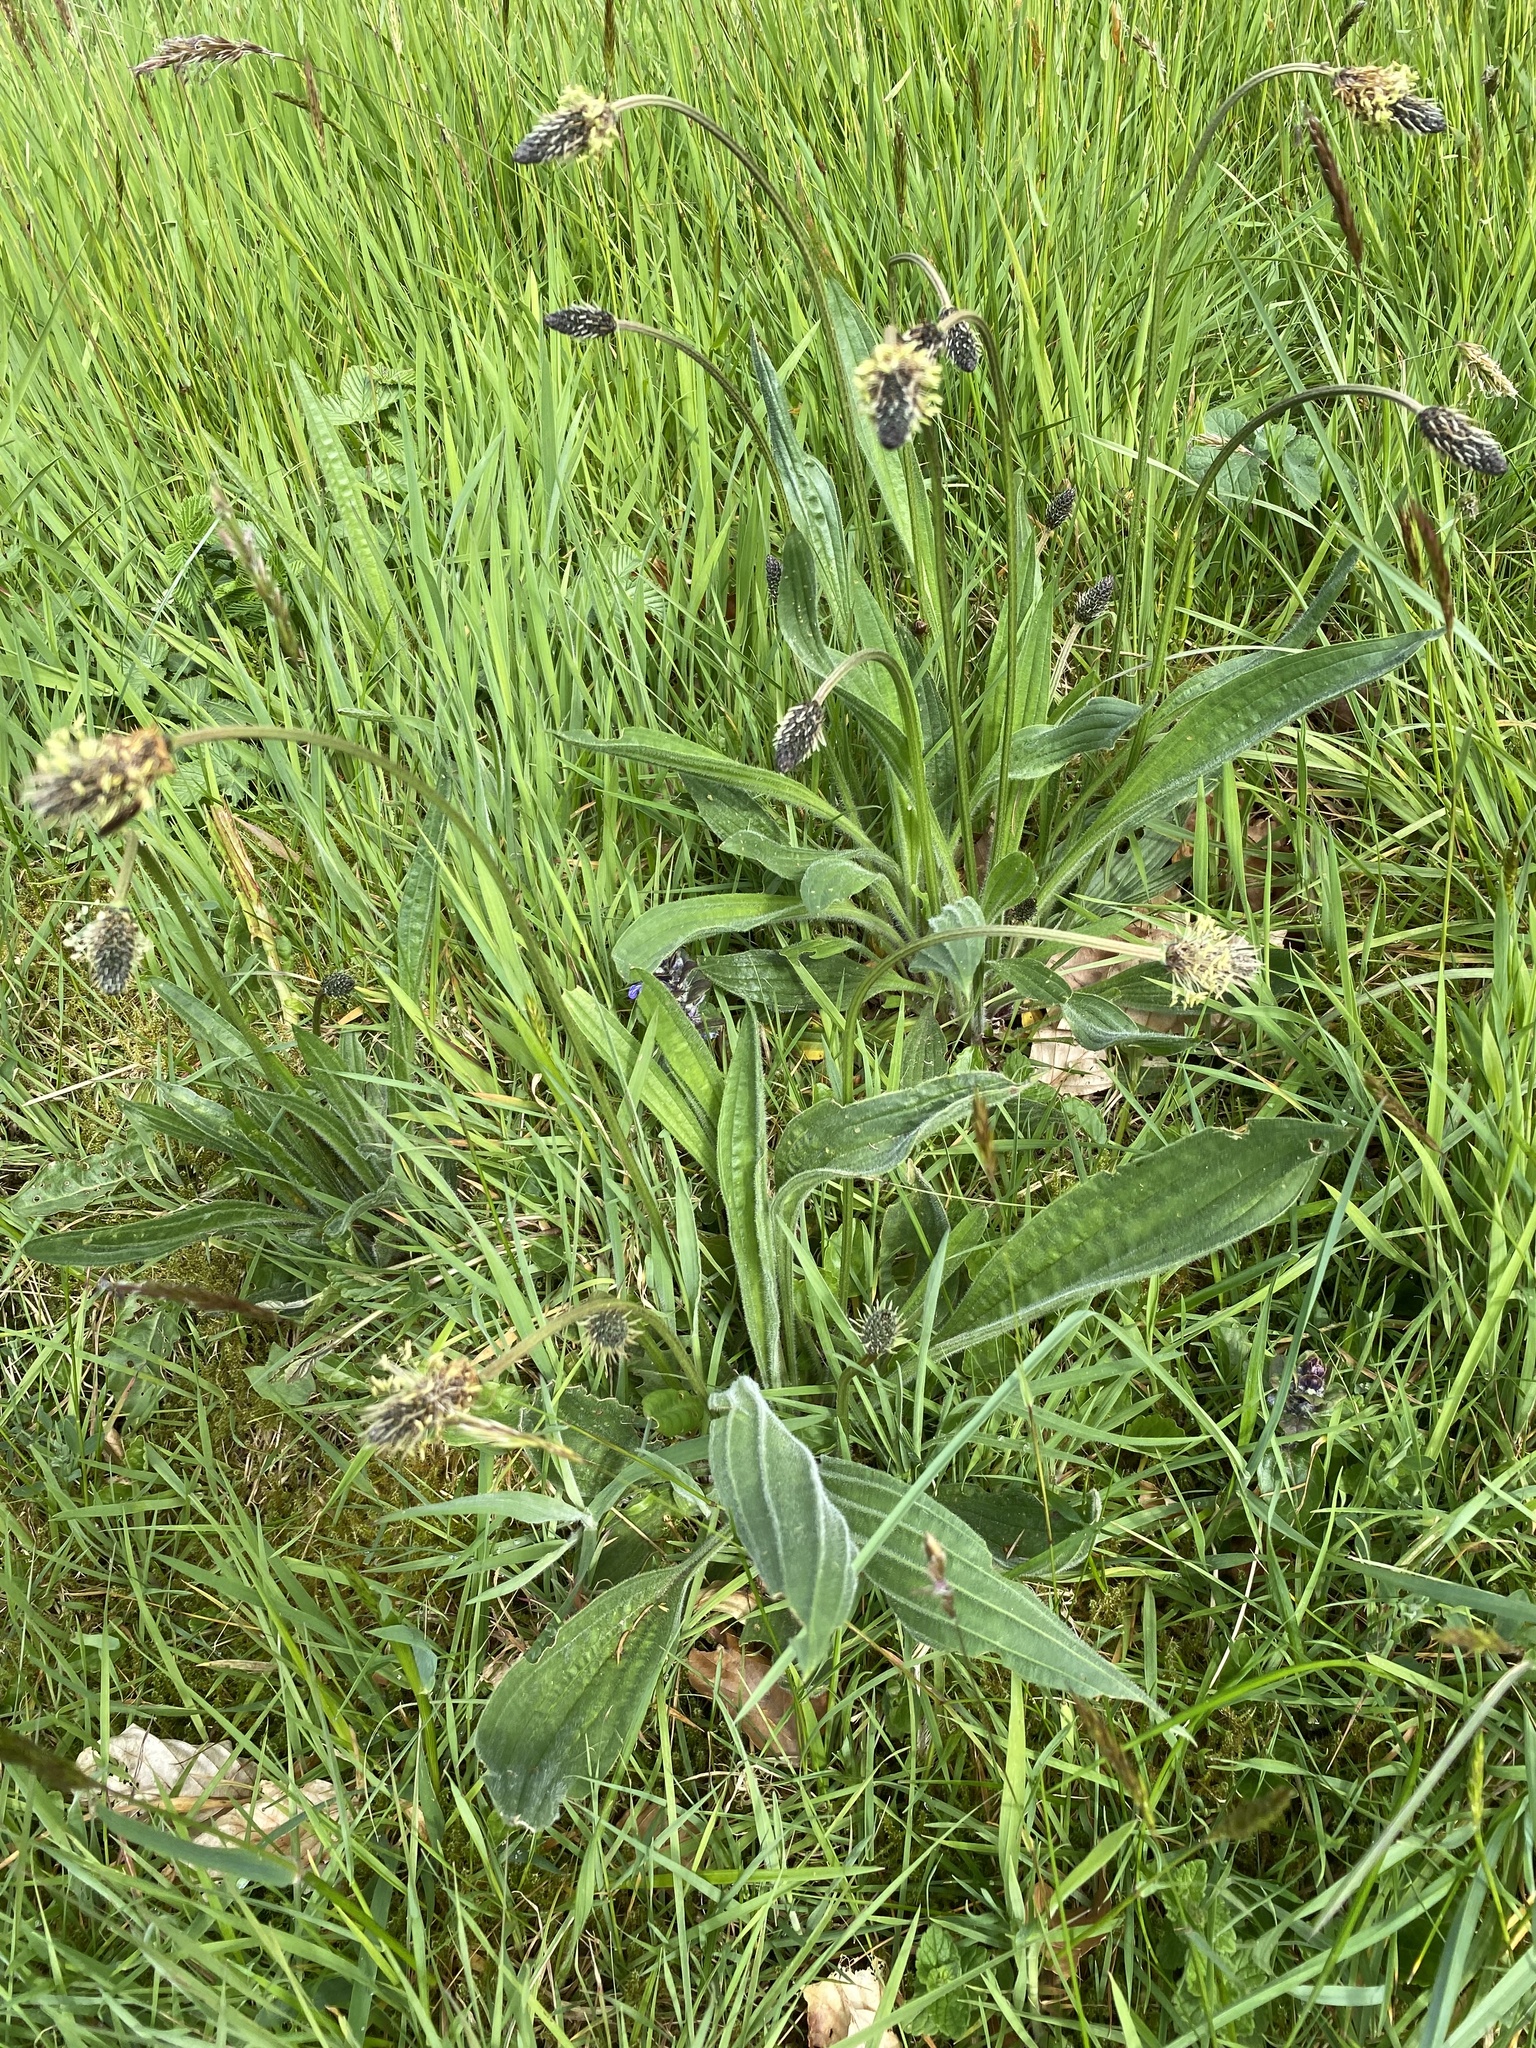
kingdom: Plantae
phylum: Tracheophyta
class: Magnoliopsida
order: Lamiales
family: Plantaginaceae
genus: Plantago
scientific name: Plantago lanceolata
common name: Ribwort plantain
